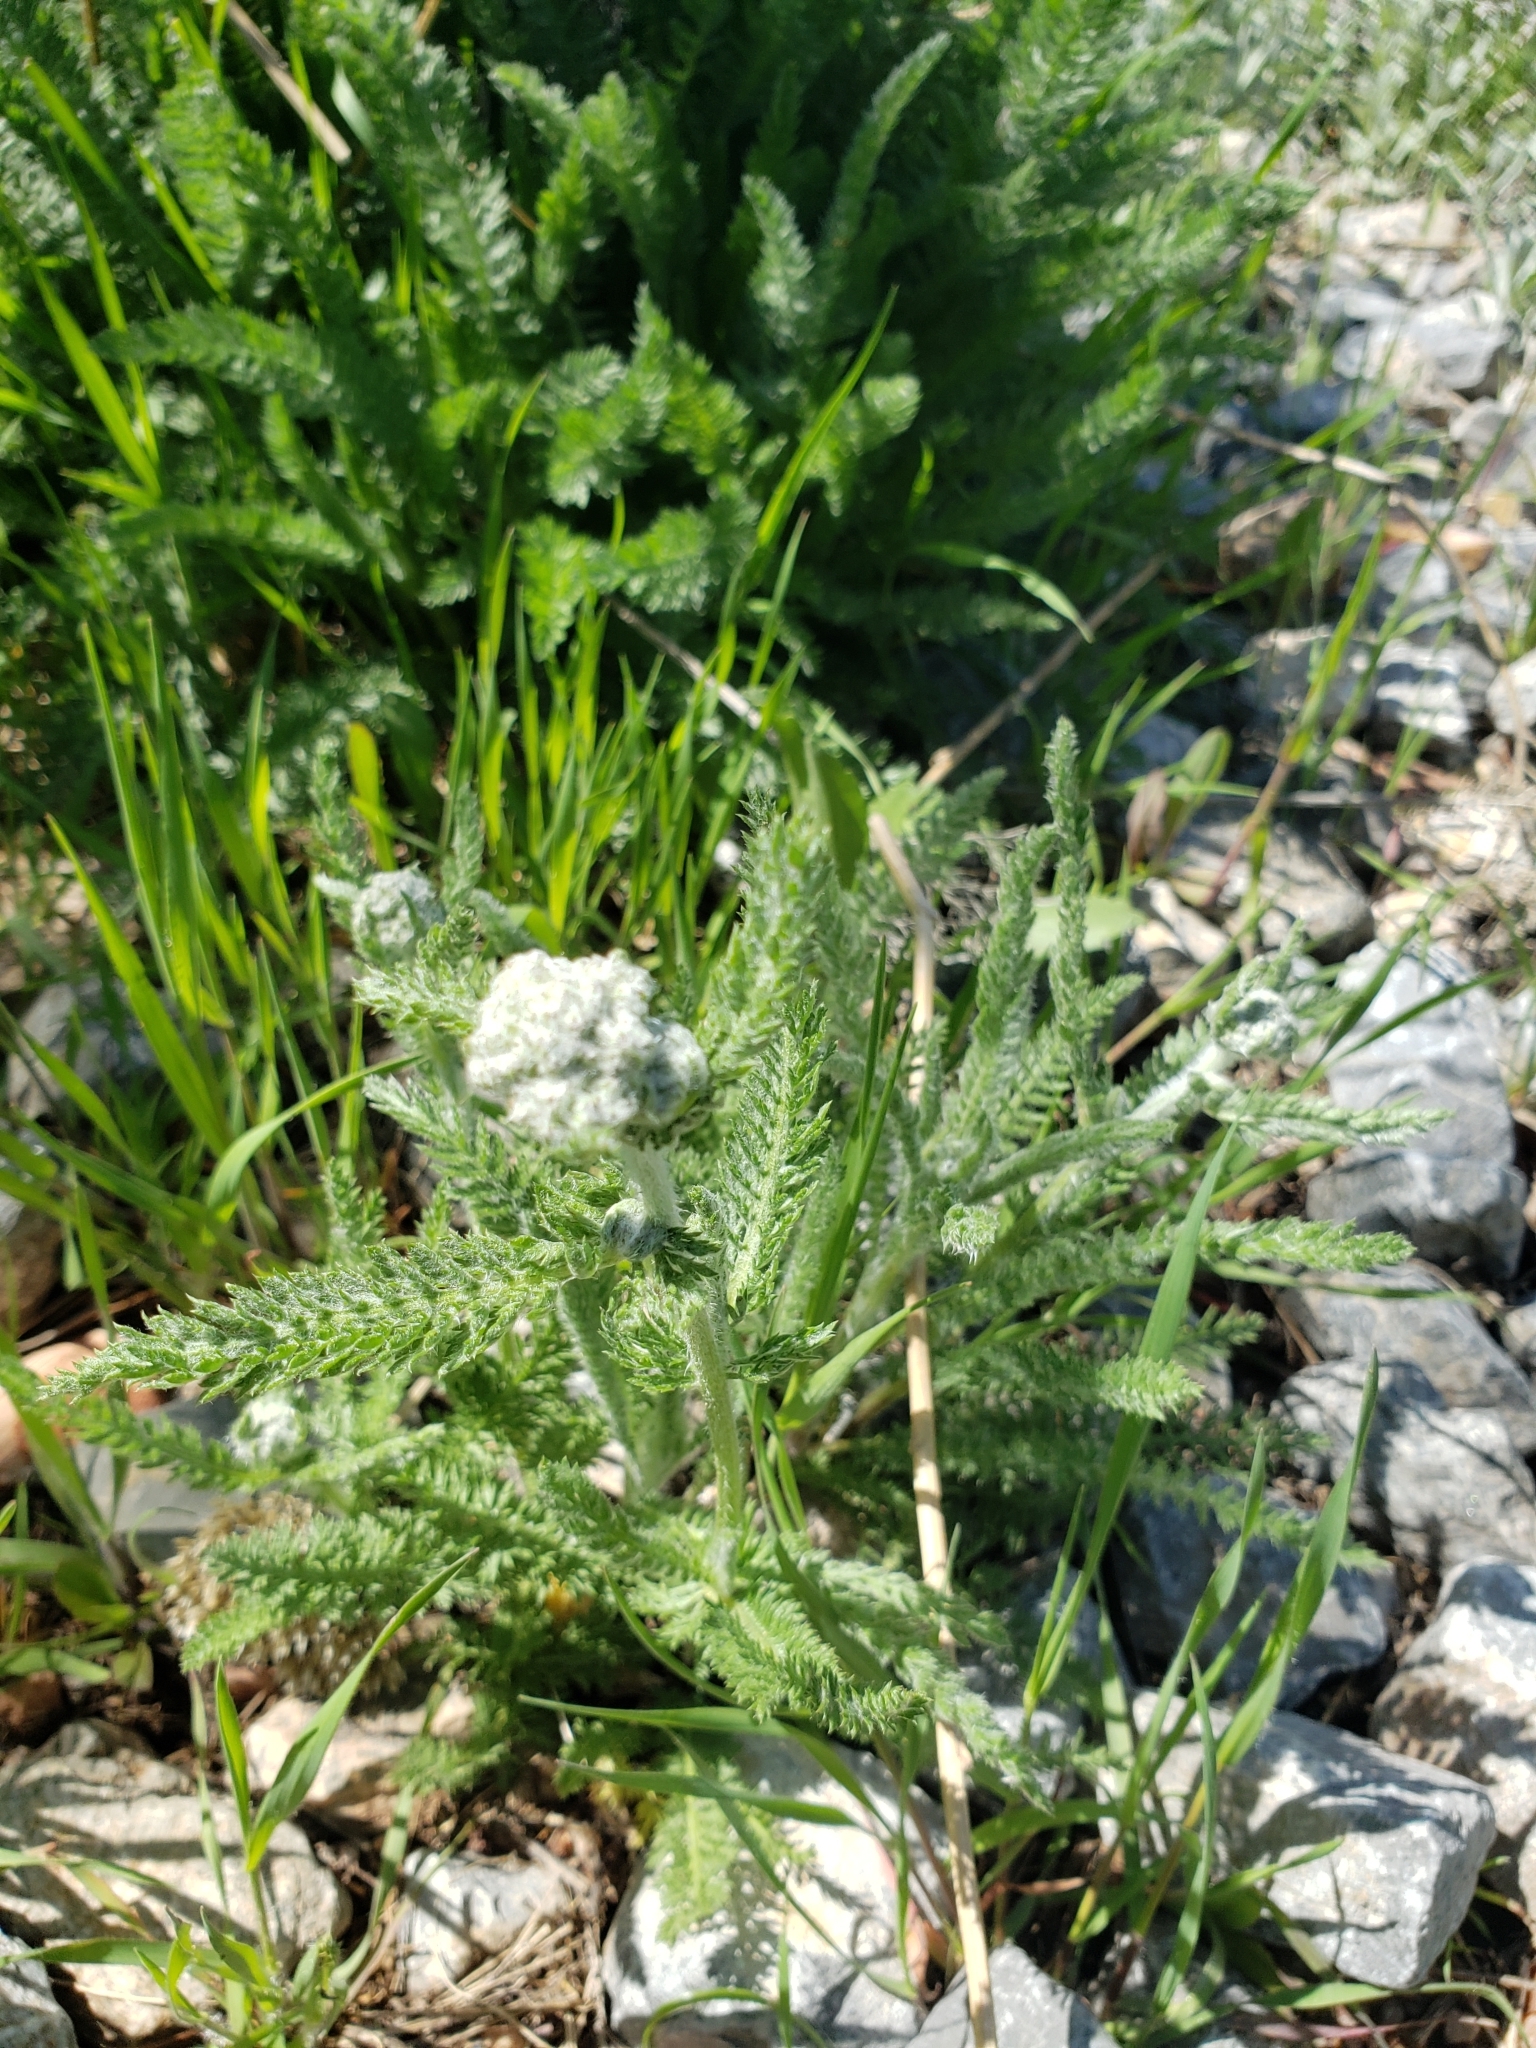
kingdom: Plantae
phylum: Tracheophyta
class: Magnoliopsida
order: Asterales
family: Asteraceae
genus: Achillea
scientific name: Achillea millefolium
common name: Yarrow
